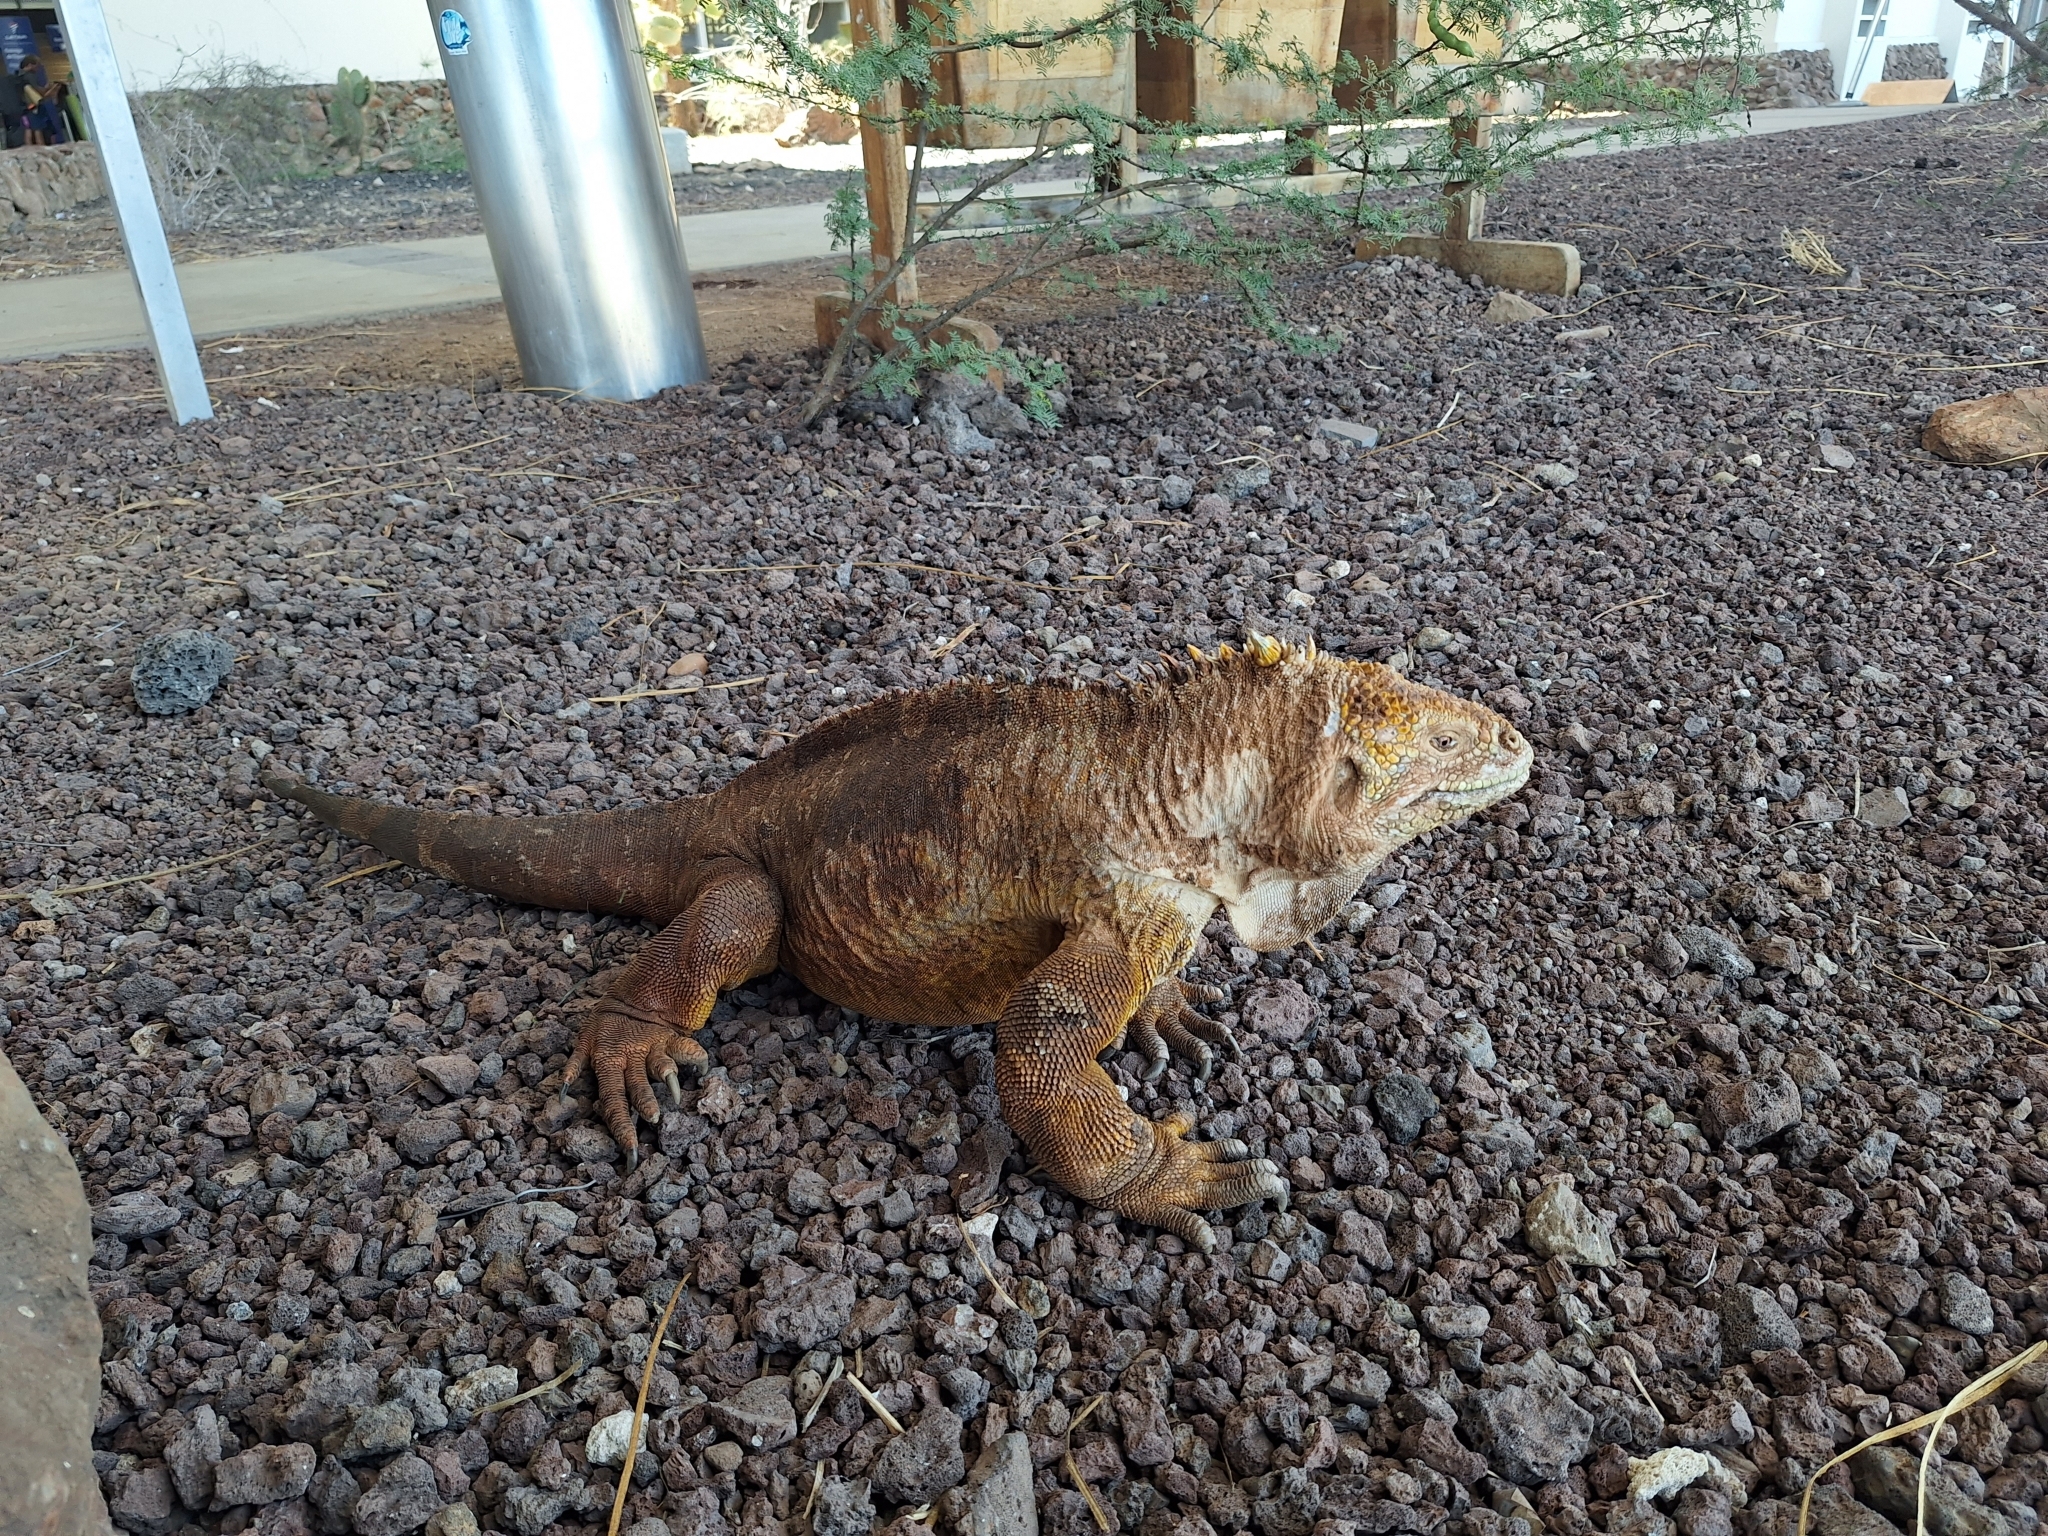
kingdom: Animalia
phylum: Chordata
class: Squamata
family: Iguanidae
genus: Conolophus
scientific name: Conolophus subcristatus
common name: Galapagos land iguana
